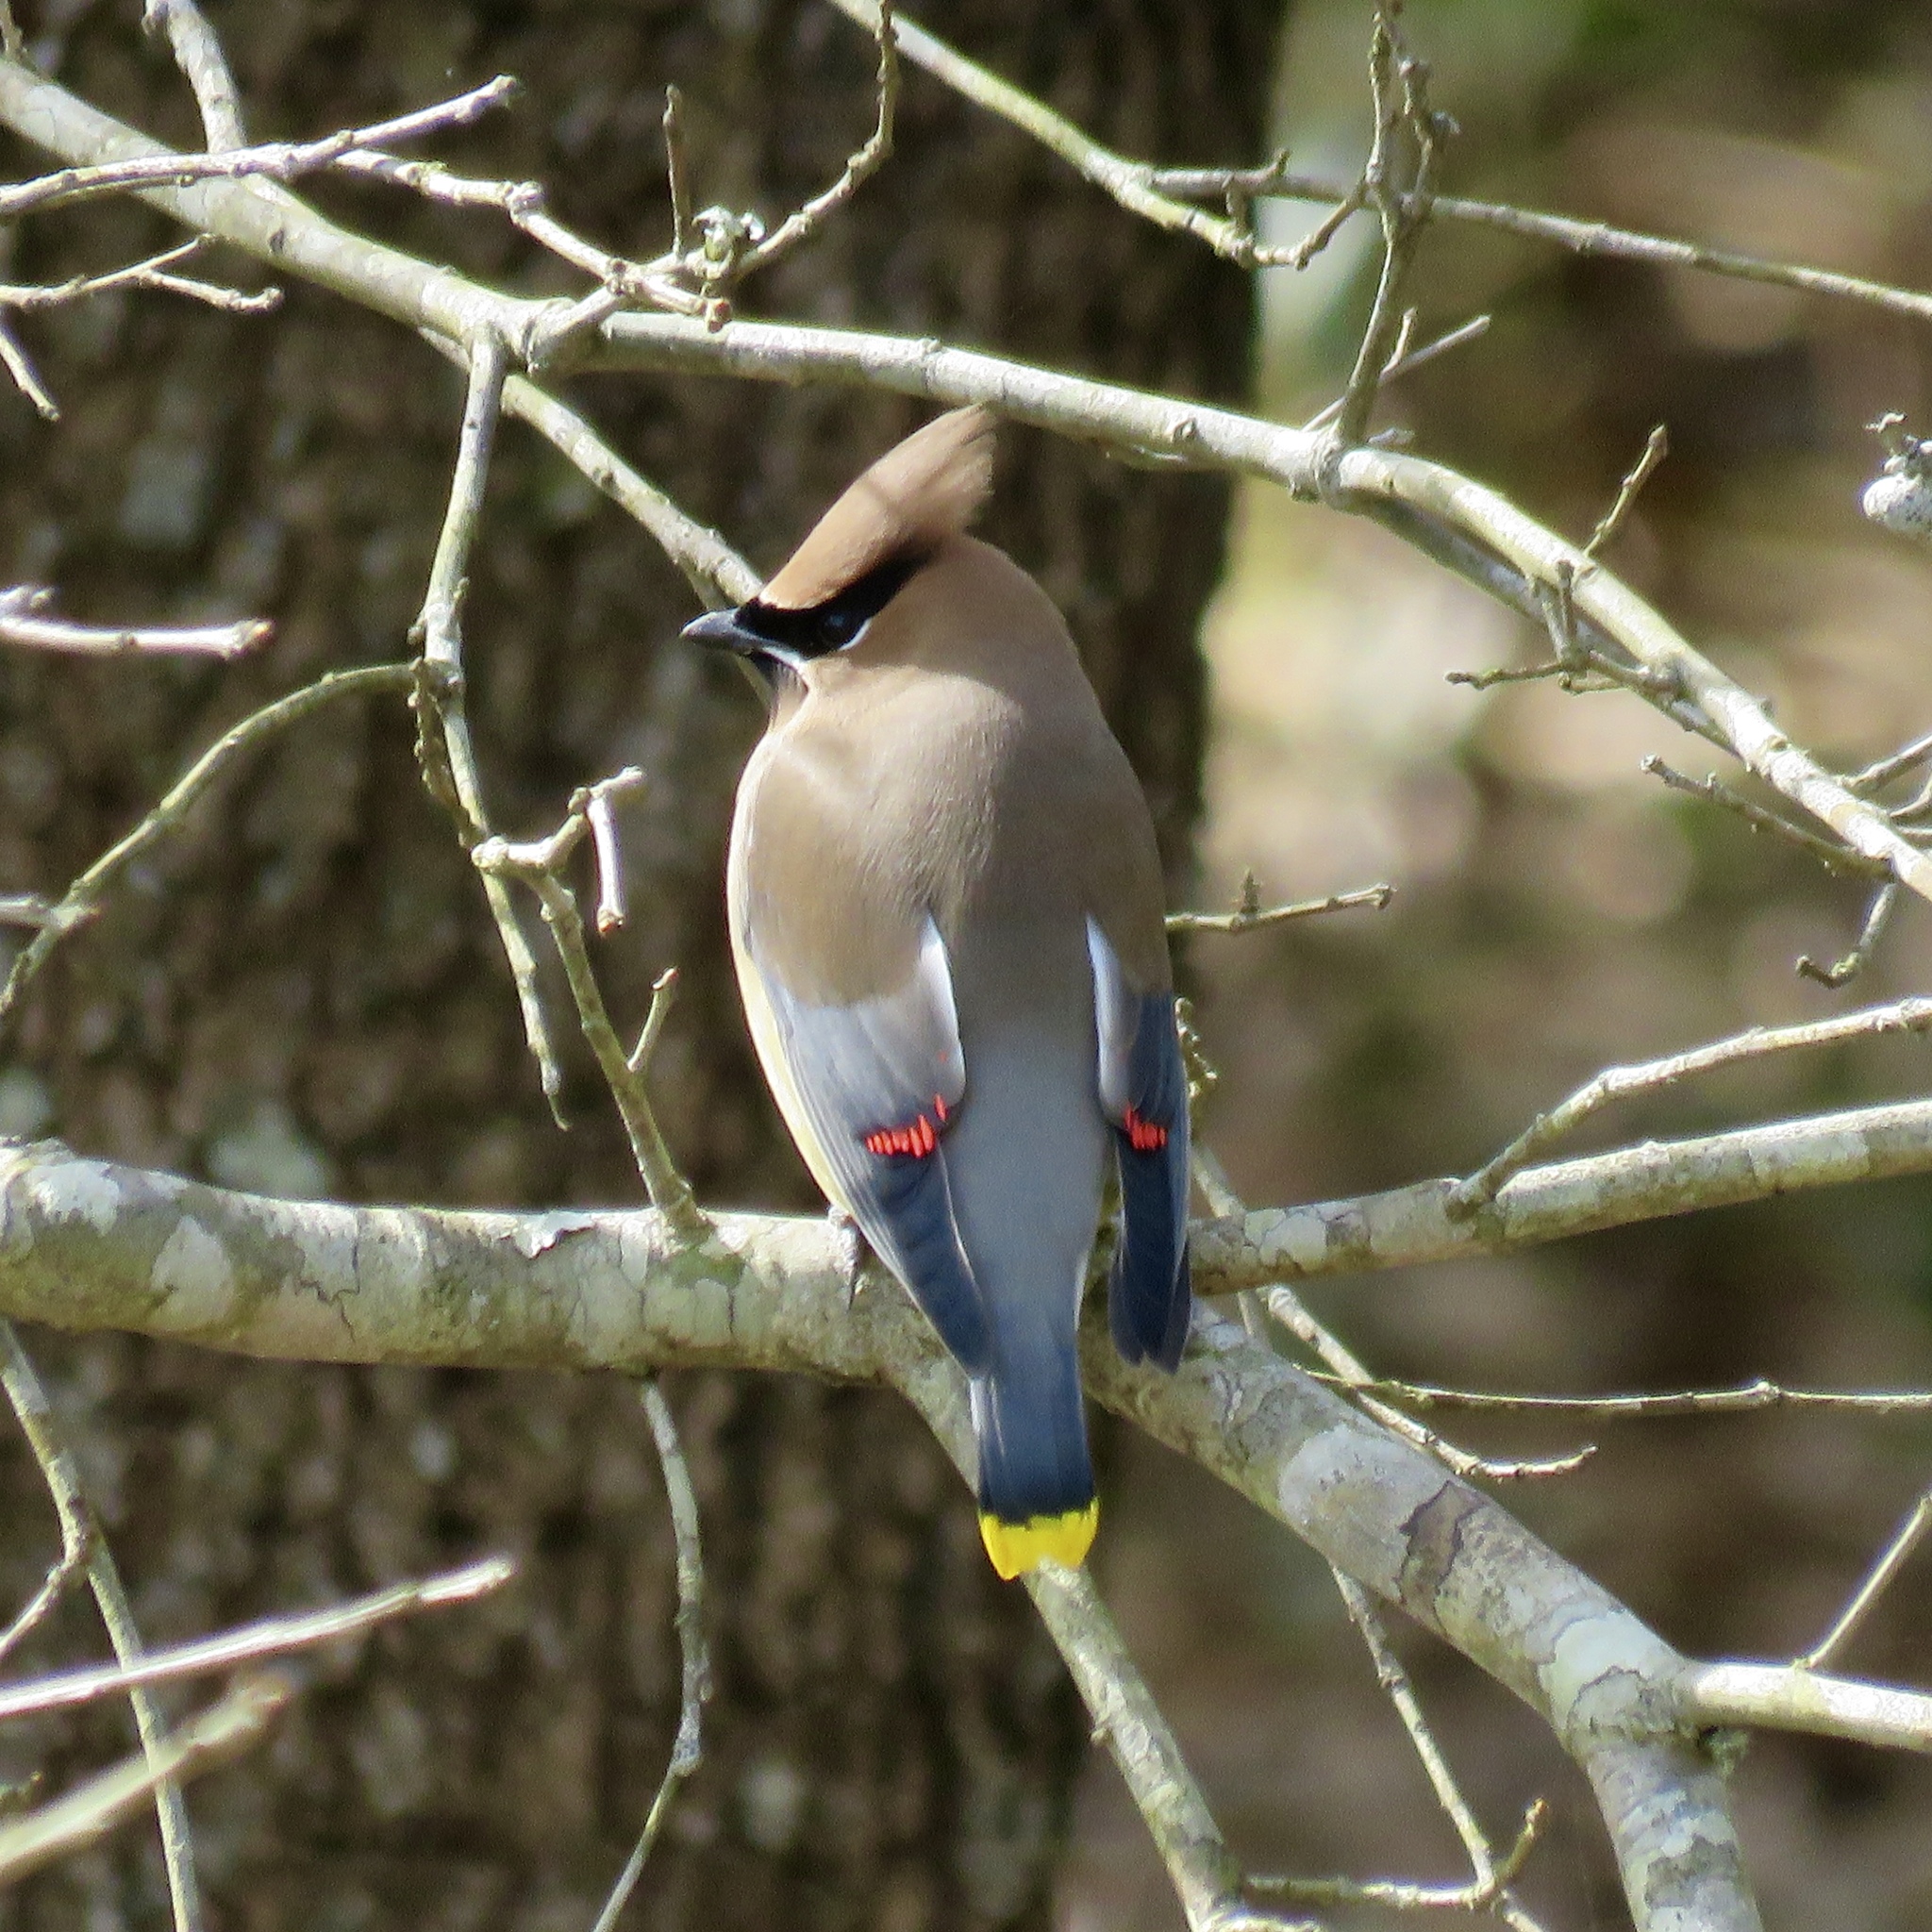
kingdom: Animalia
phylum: Chordata
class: Aves
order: Passeriformes
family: Bombycillidae
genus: Bombycilla
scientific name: Bombycilla cedrorum
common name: Cedar waxwing
